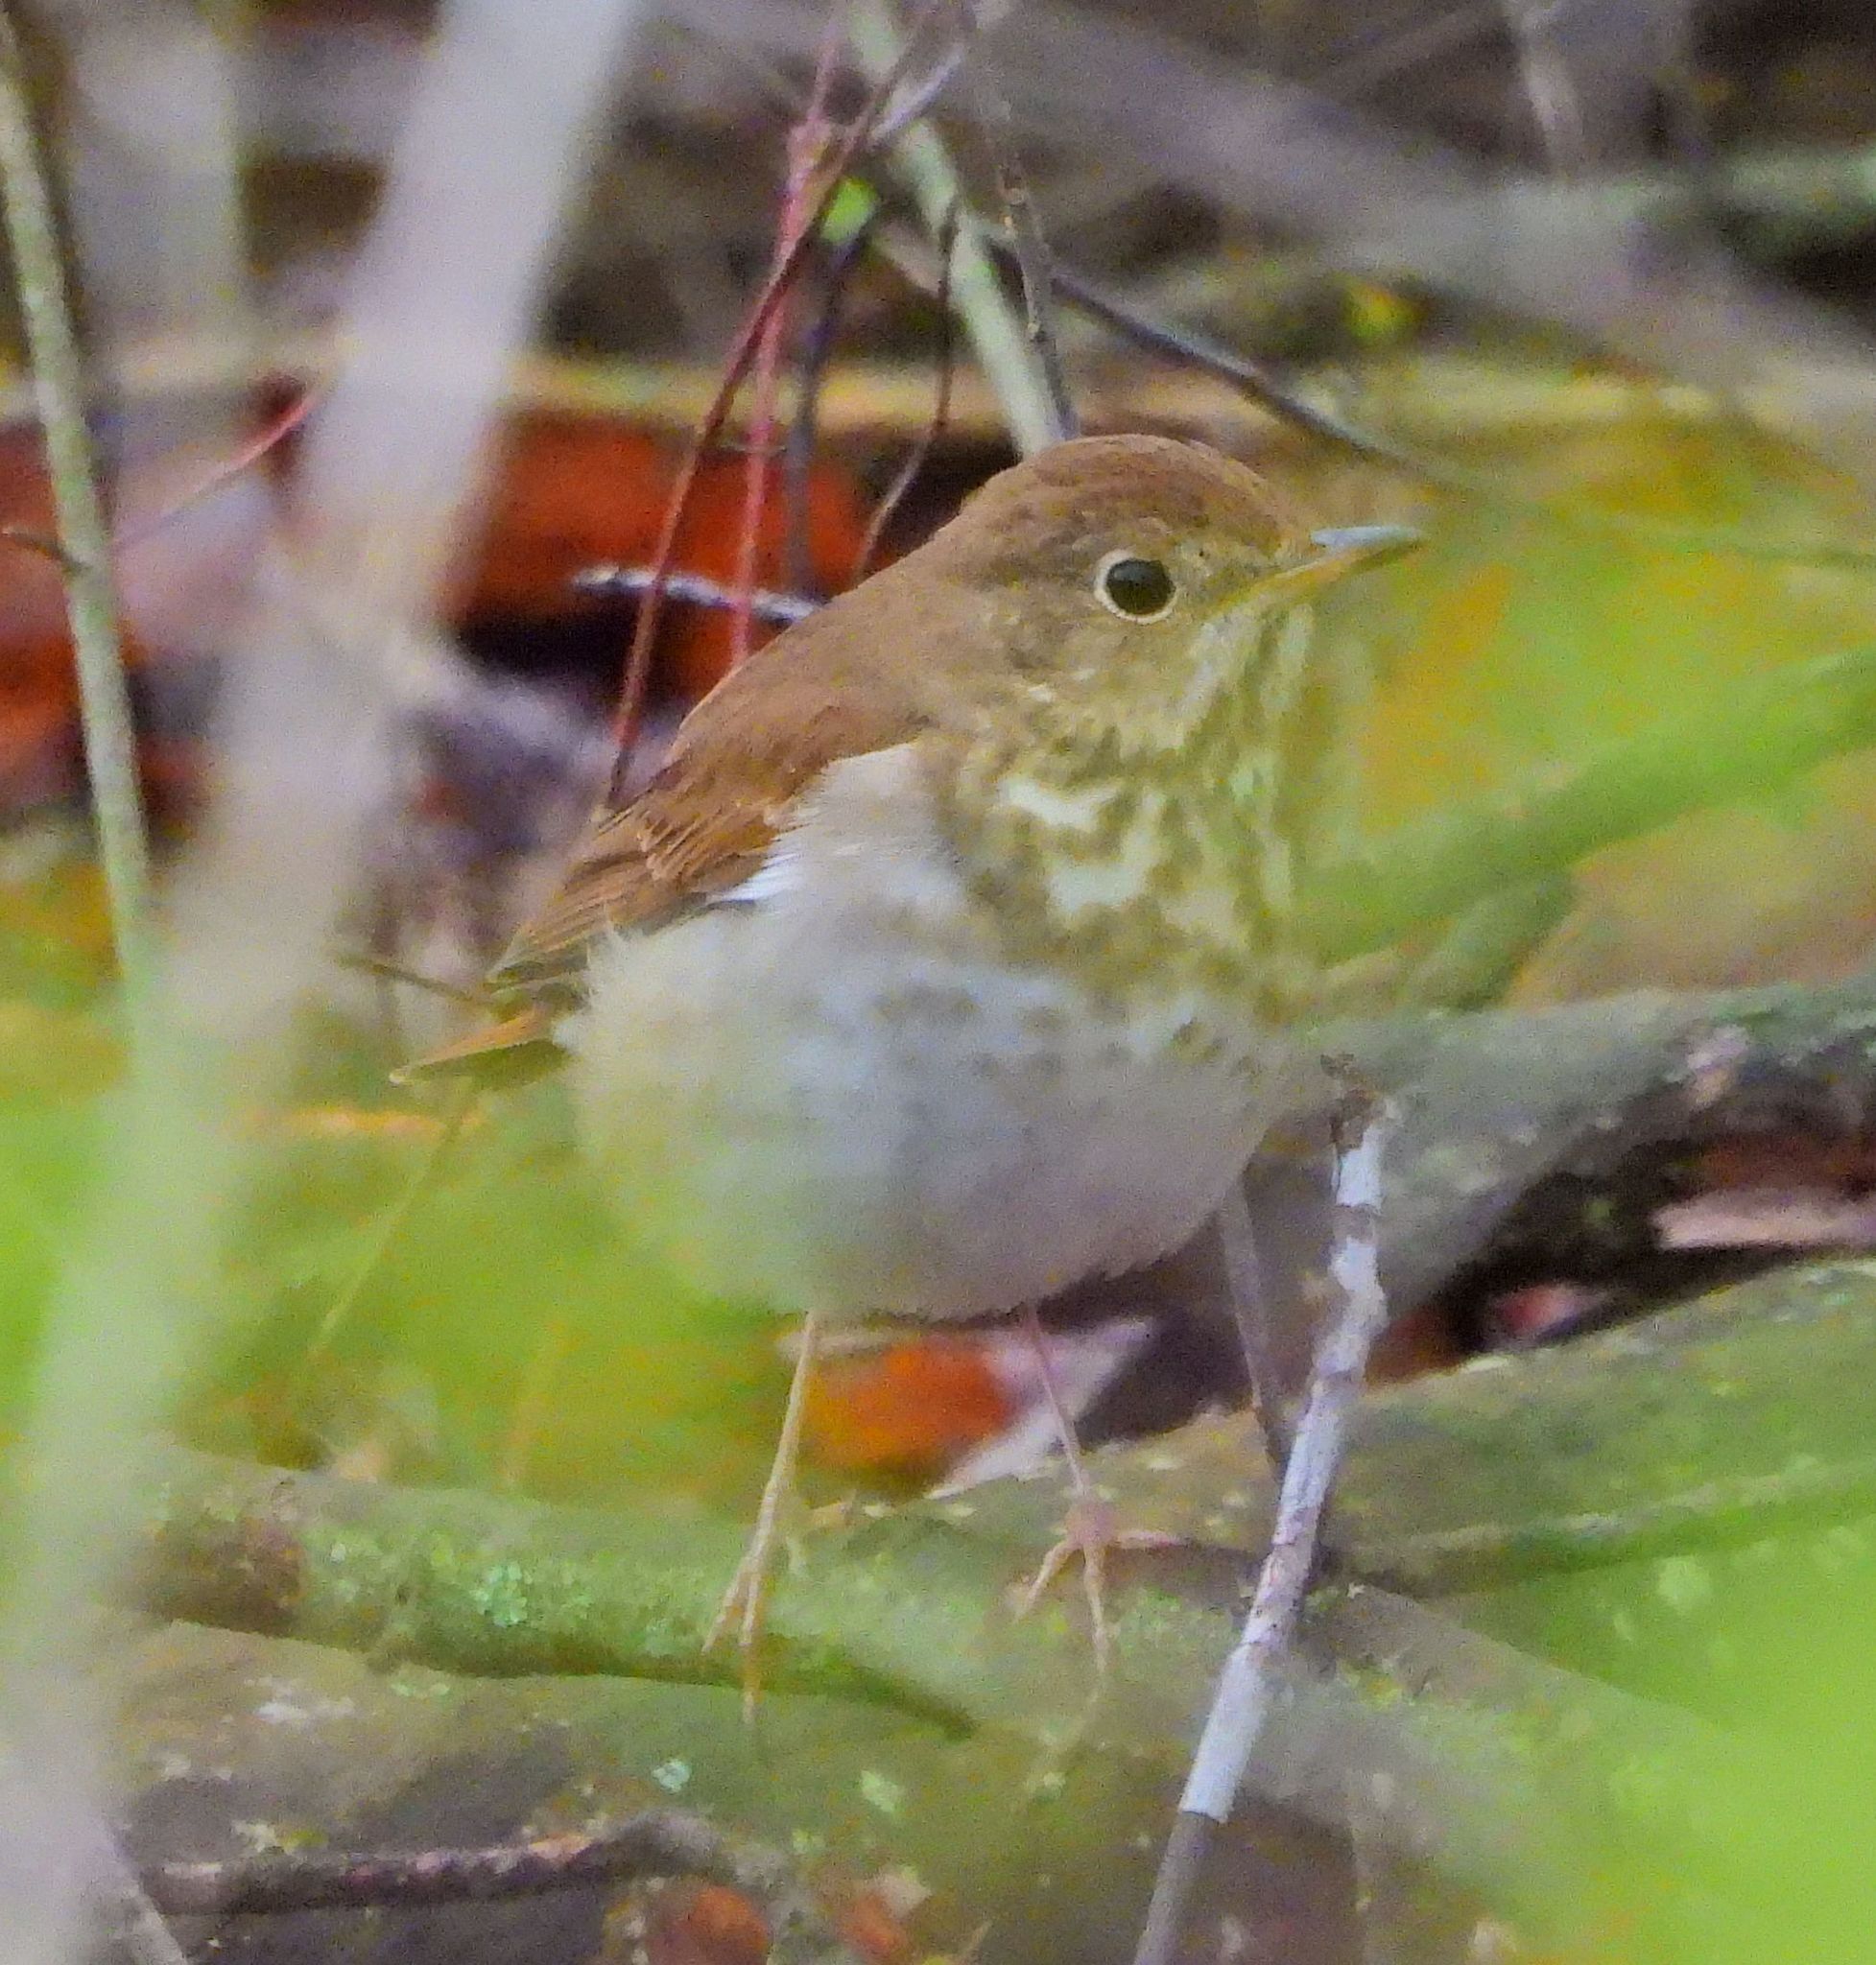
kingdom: Animalia
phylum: Chordata
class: Aves
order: Passeriformes
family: Turdidae
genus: Catharus
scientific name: Catharus guttatus
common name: Hermit thrush
